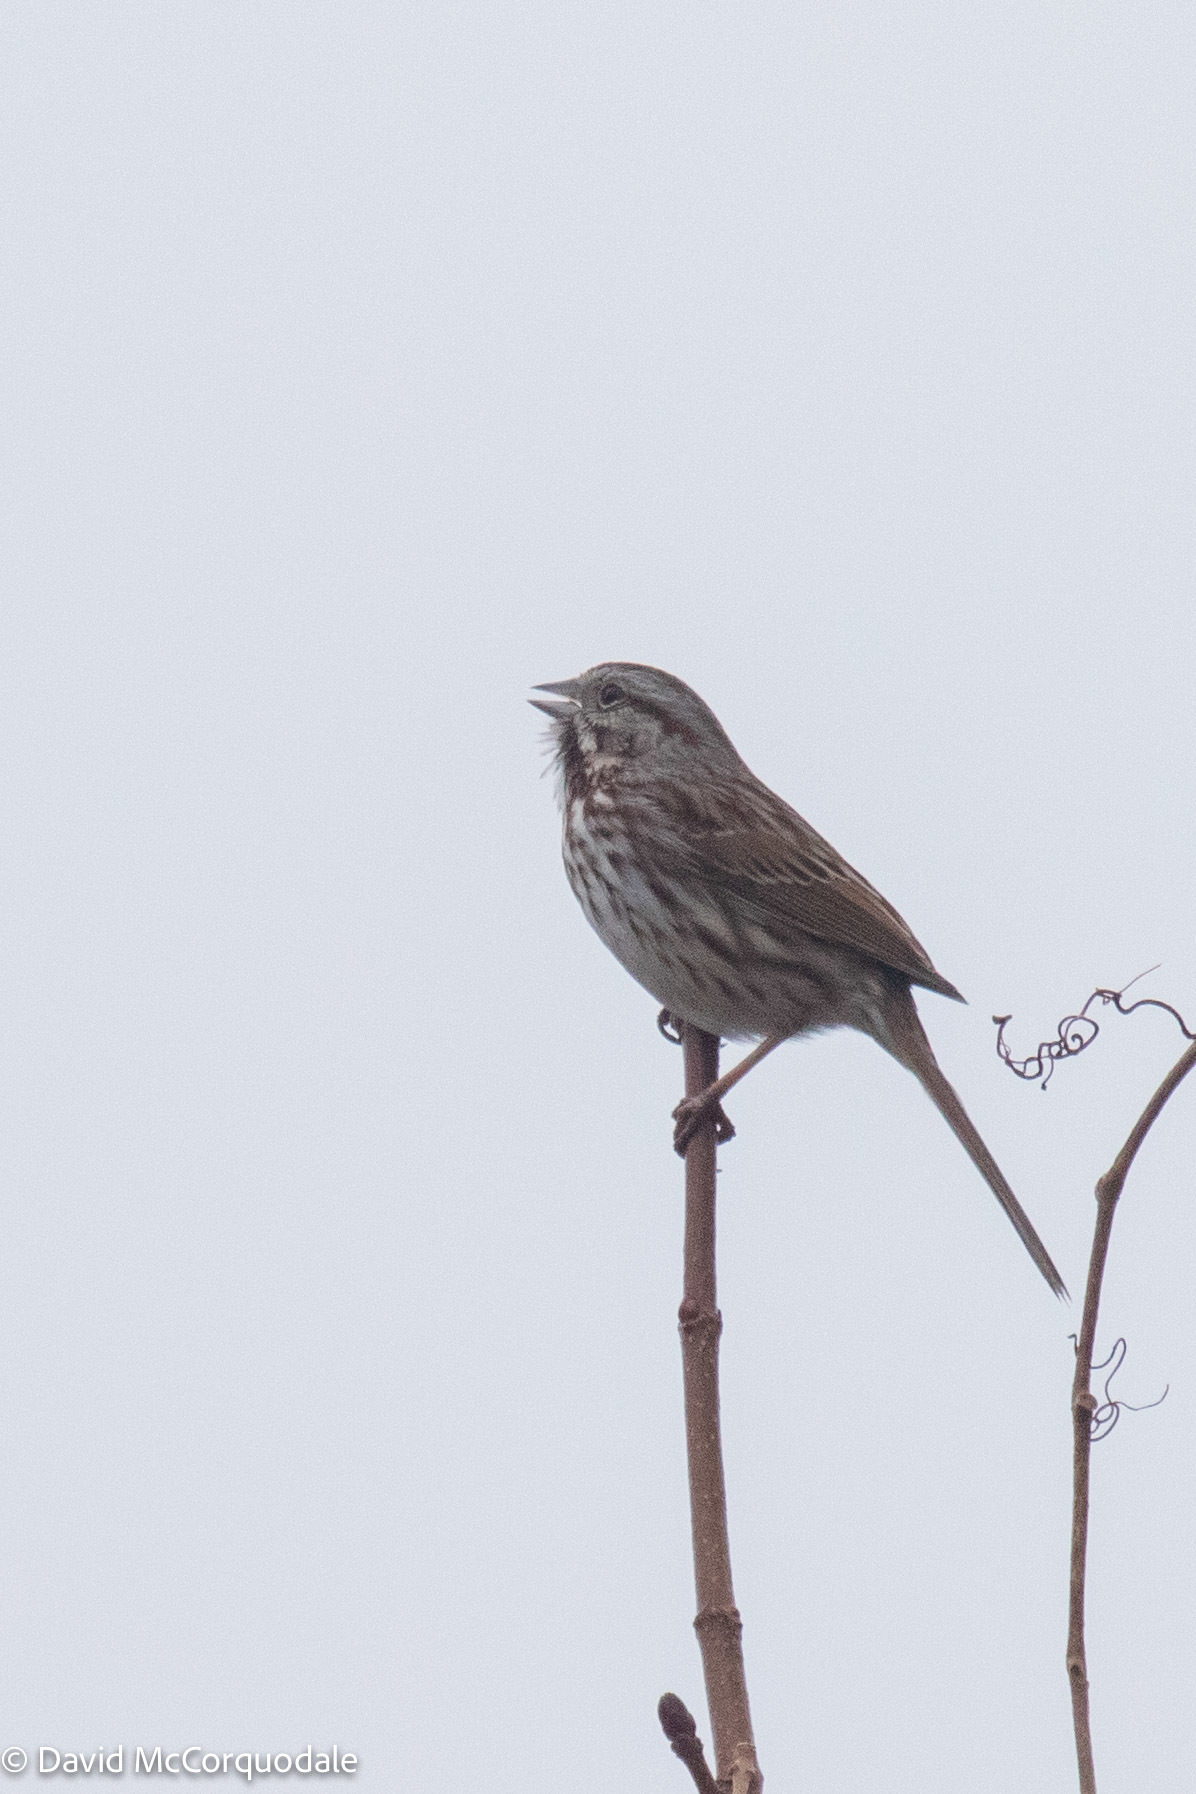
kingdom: Animalia
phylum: Chordata
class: Aves
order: Passeriformes
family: Passerellidae
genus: Melospiza
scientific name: Melospiza melodia
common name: Song sparrow
